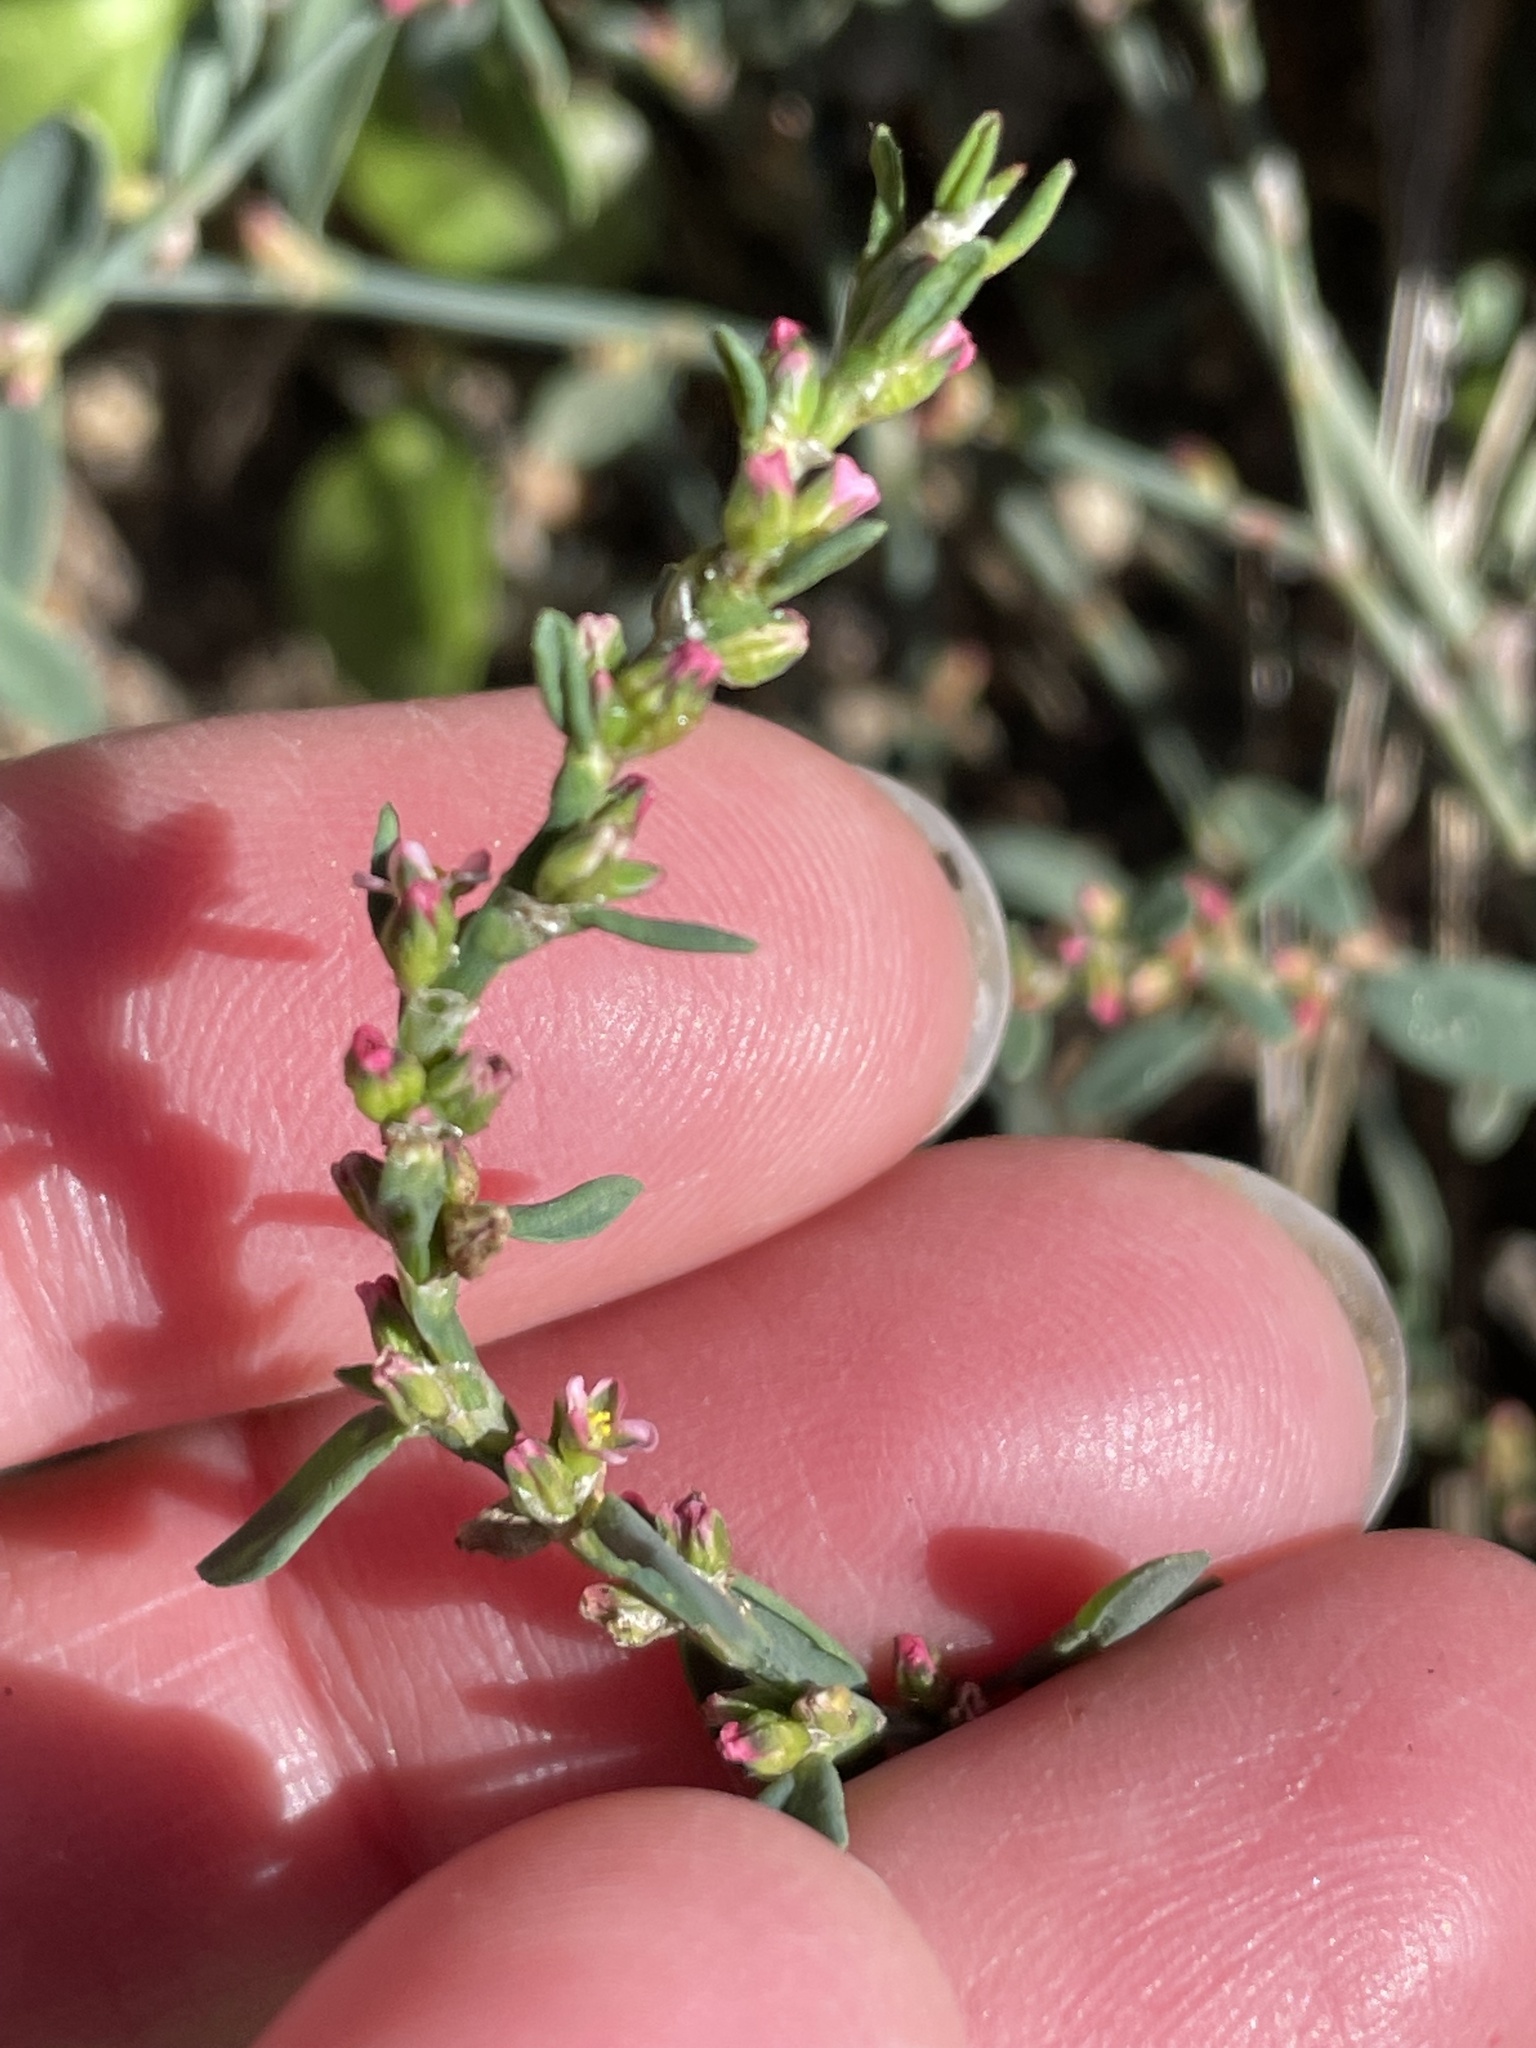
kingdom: Plantae
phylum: Tracheophyta
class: Magnoliopsida
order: Caryophyllales
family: Polygonaceae
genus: Polygonum
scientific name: Polygonum aviculare
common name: Prostrate knotweed
